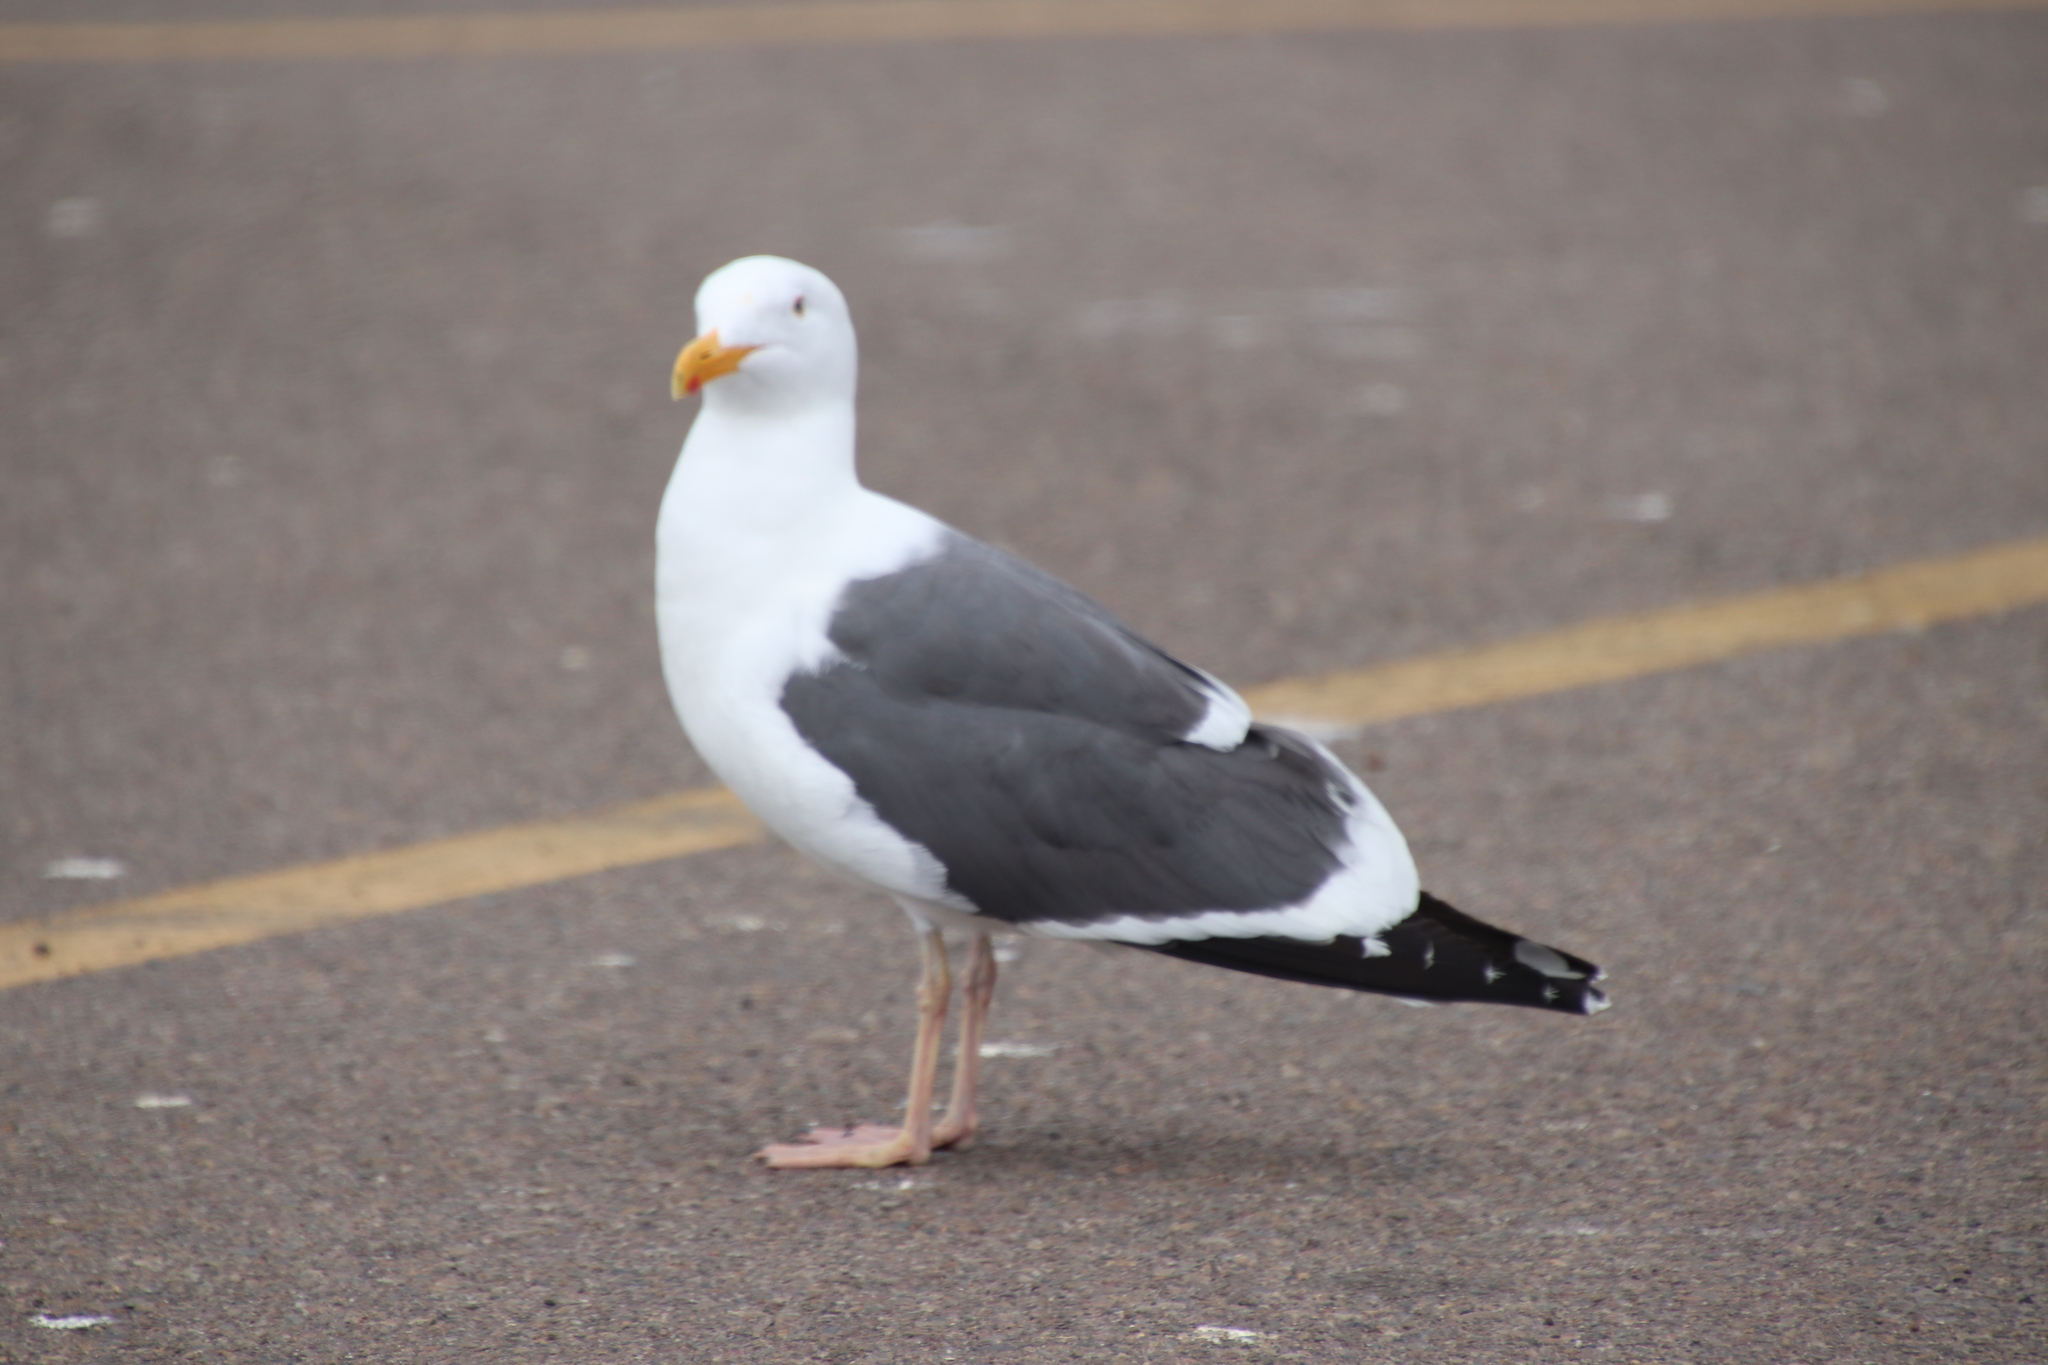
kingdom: Animalia
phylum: Chordata
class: Aves
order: Charadriiformes
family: Laridae
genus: Larus
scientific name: Larus occidentalis
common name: Western gull
